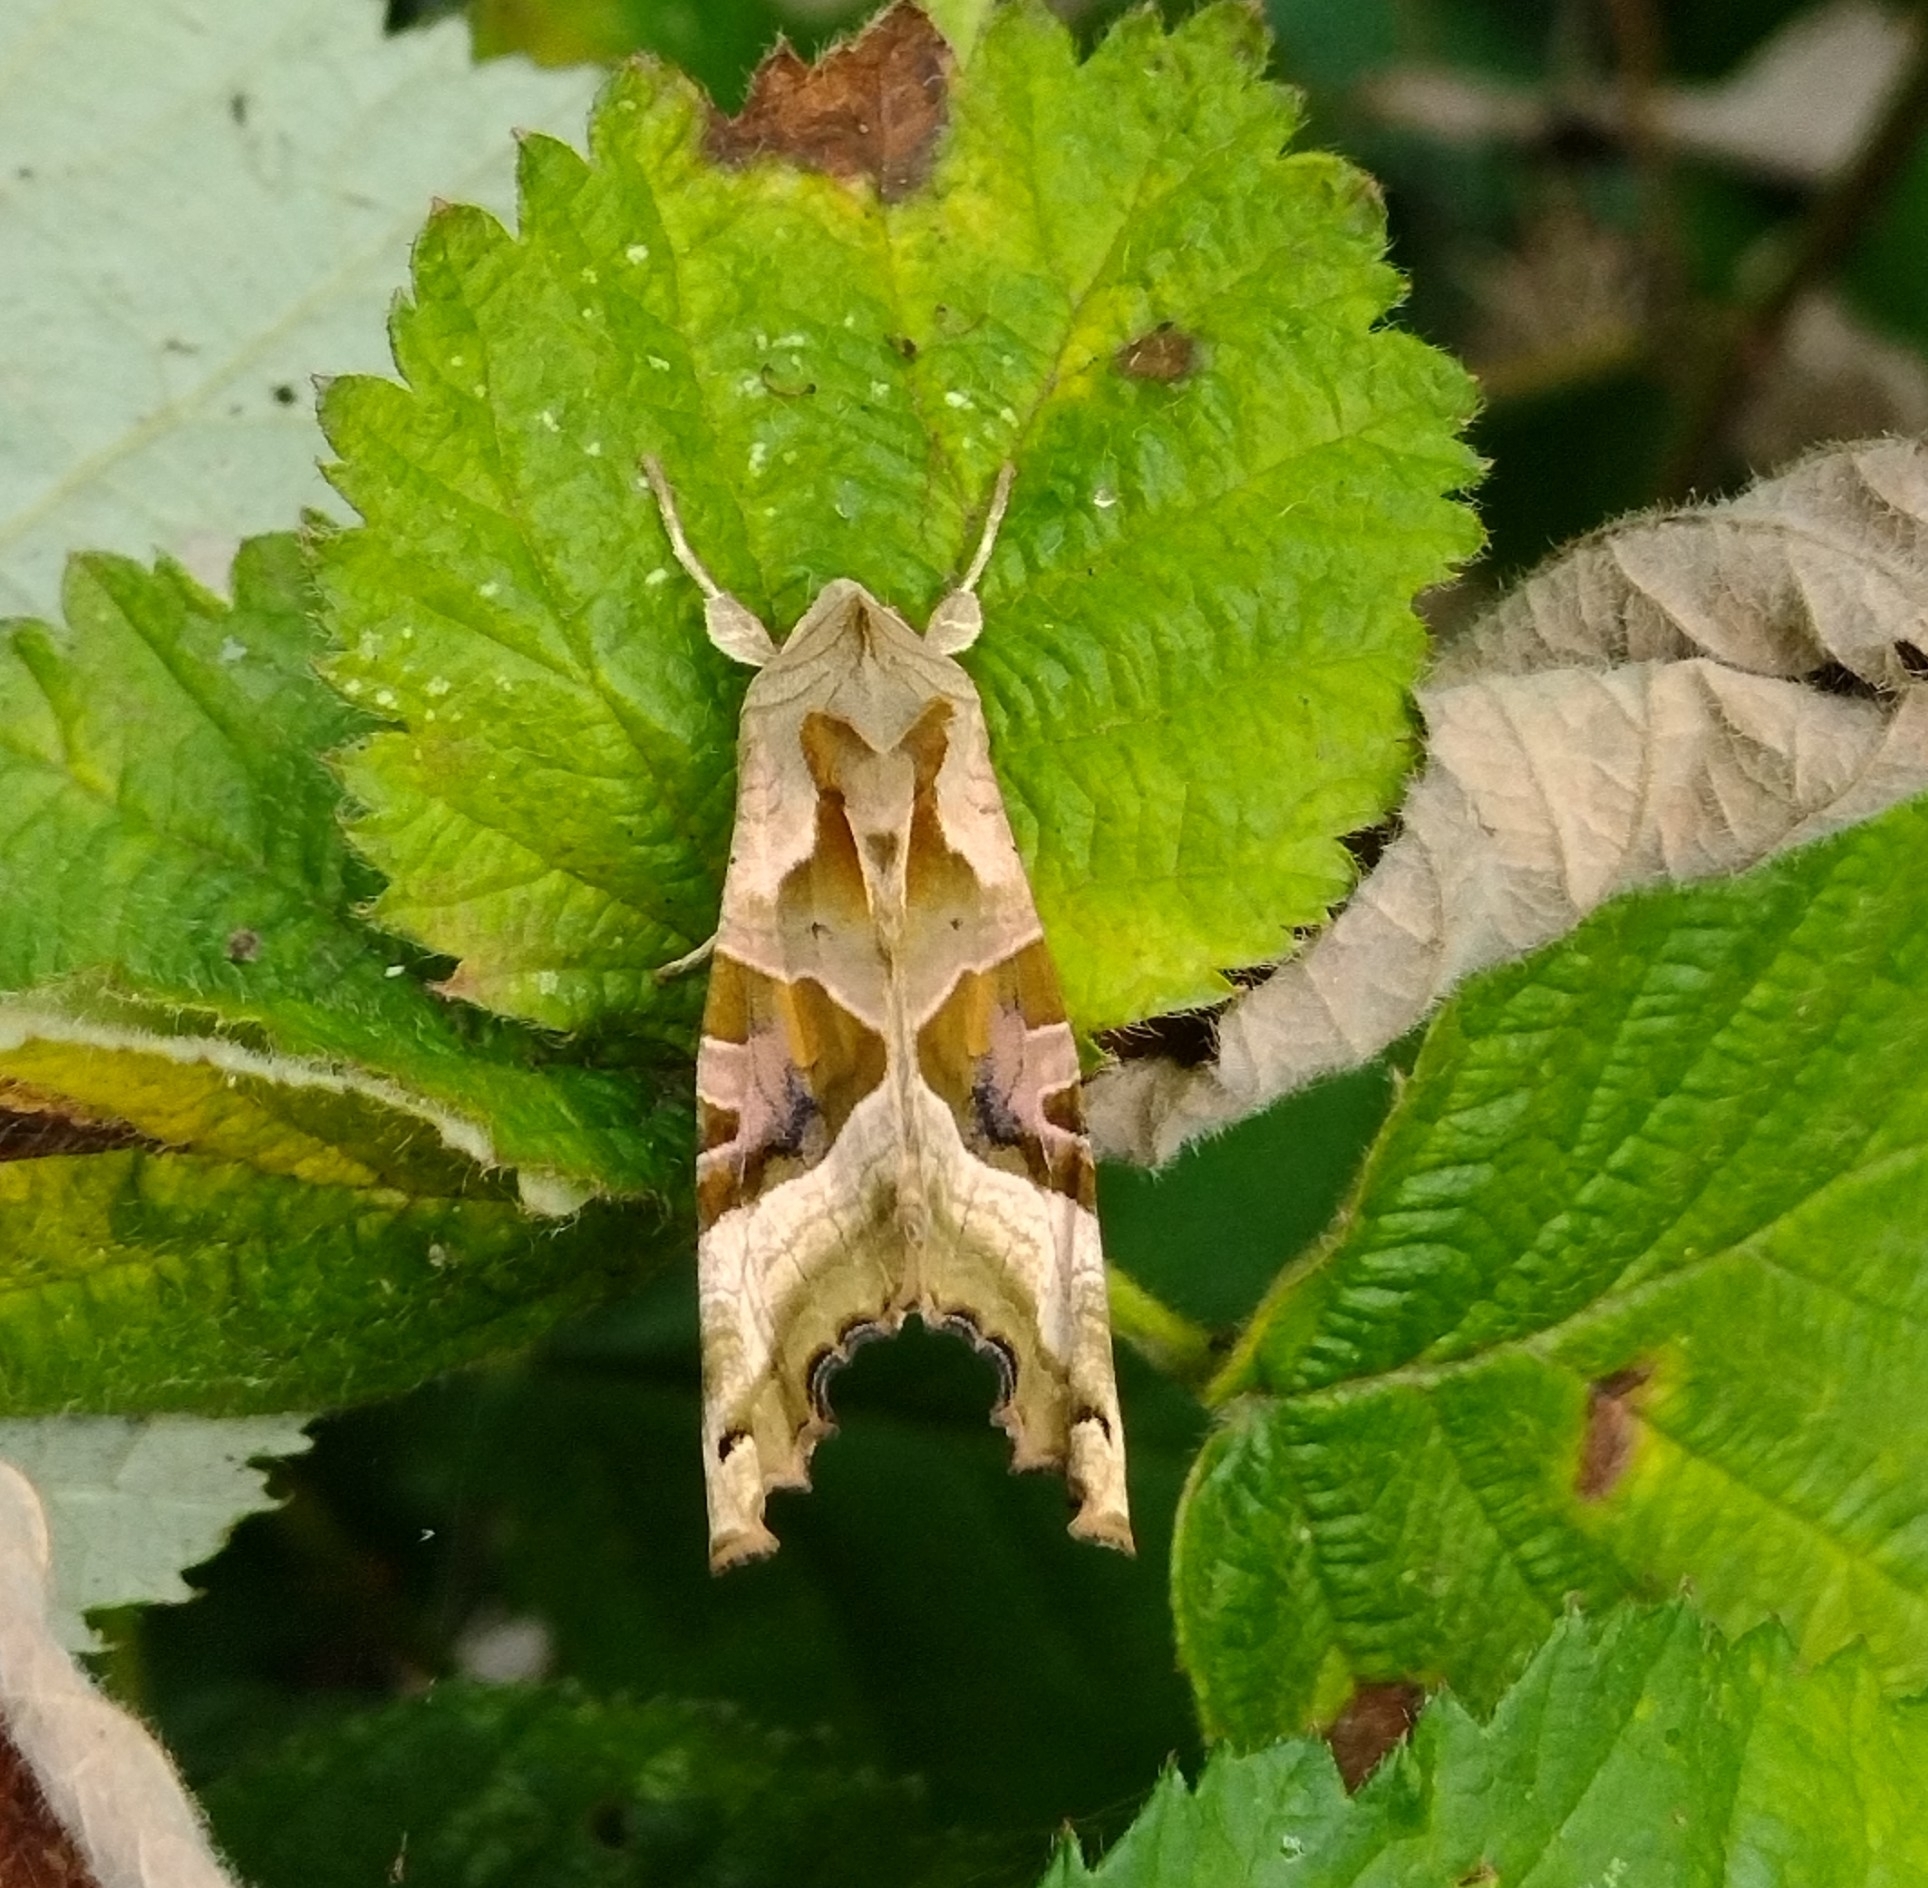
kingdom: Animalia
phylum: Arthropoda
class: Insecta
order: Lepidoptera
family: Noctuidae
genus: Phlogophora
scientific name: Phlogophora meticulosa
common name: Angle shades
